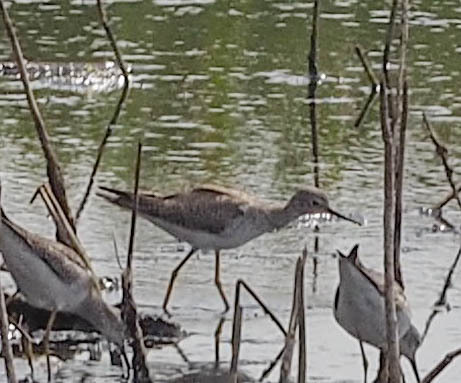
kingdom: Animalia
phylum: Chordata
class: Aves
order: Charadriiformes
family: Scolopacidae
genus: Tringa
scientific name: Tringa flavipes
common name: Lesser yellowlegs
